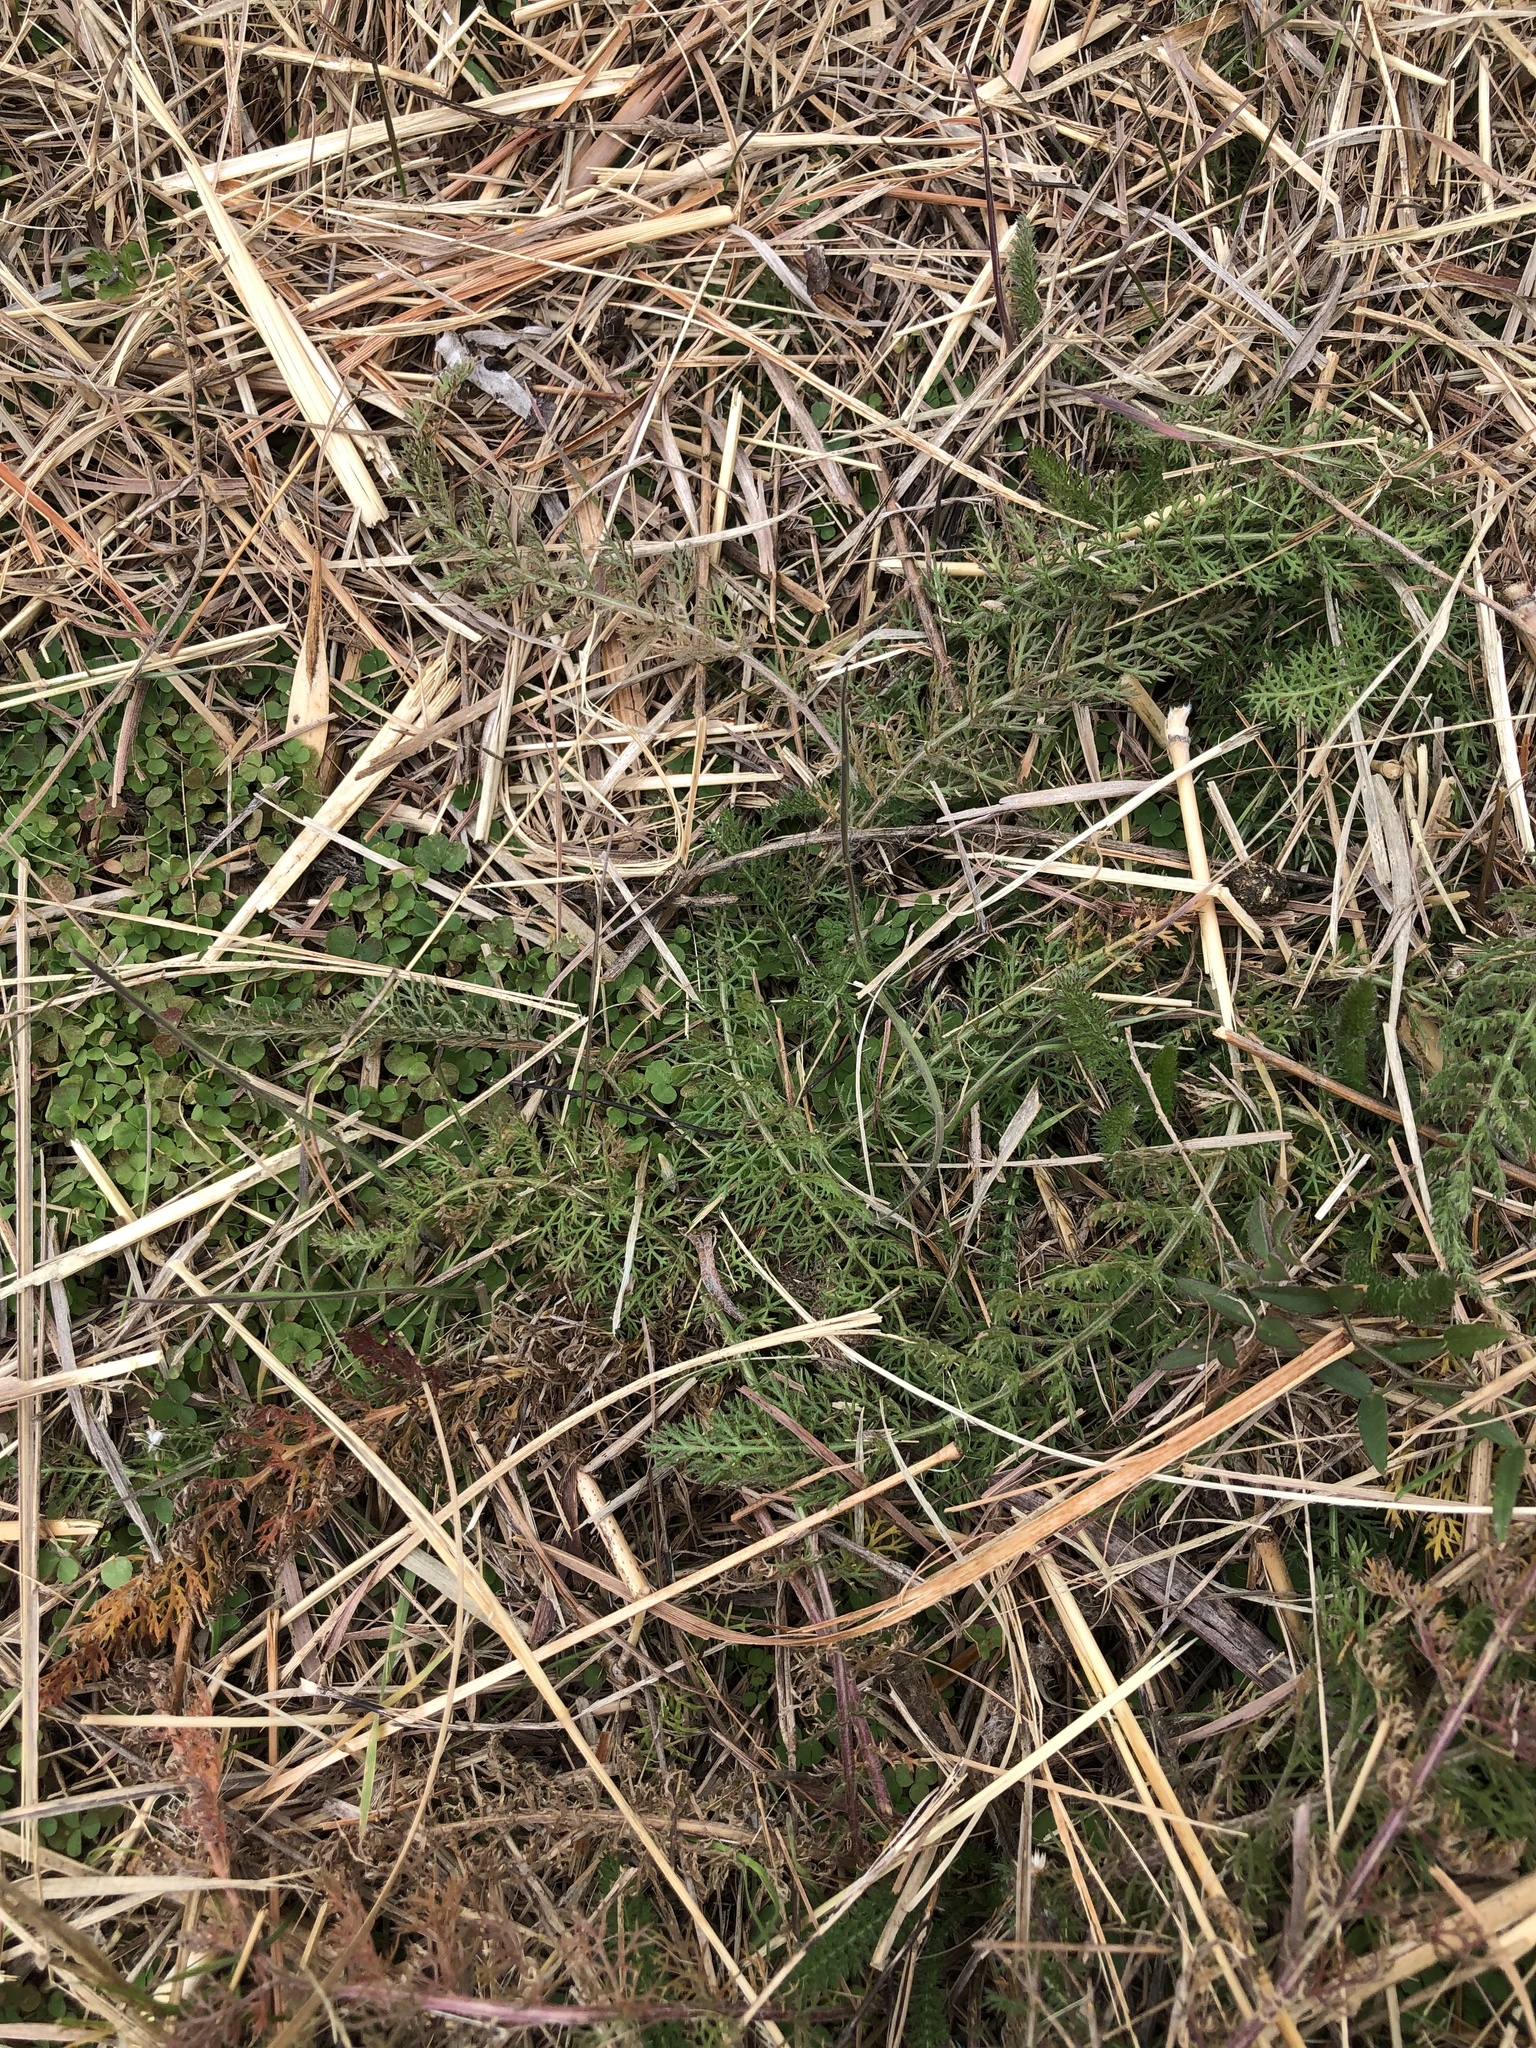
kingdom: Plantae
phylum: Tracheophyta
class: Magnoliopsida
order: Asterales
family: Asteraceae
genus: Achillea
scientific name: Achillea millefolium
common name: Yarrow
